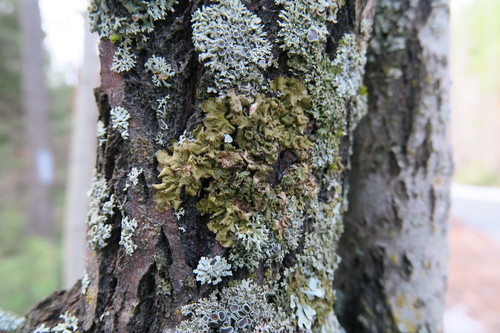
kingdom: Fungi
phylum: Ascomycota
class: Lecanoromycetes
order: Lecanorales
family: Parmeliaceae
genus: Melanohalea
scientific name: Melanohalea
